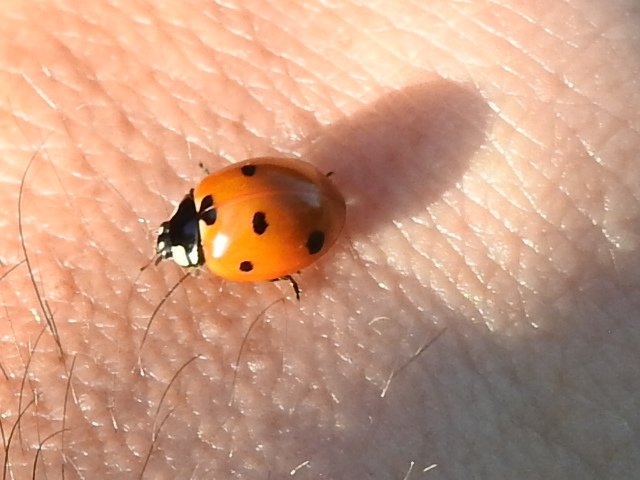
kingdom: Animalia
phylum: Arthropoda
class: Insecta
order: Coleoptera
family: Coccinellidae
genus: Coccinella
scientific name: Coccinella septempunctata
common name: Sevenspotted lady beetle
